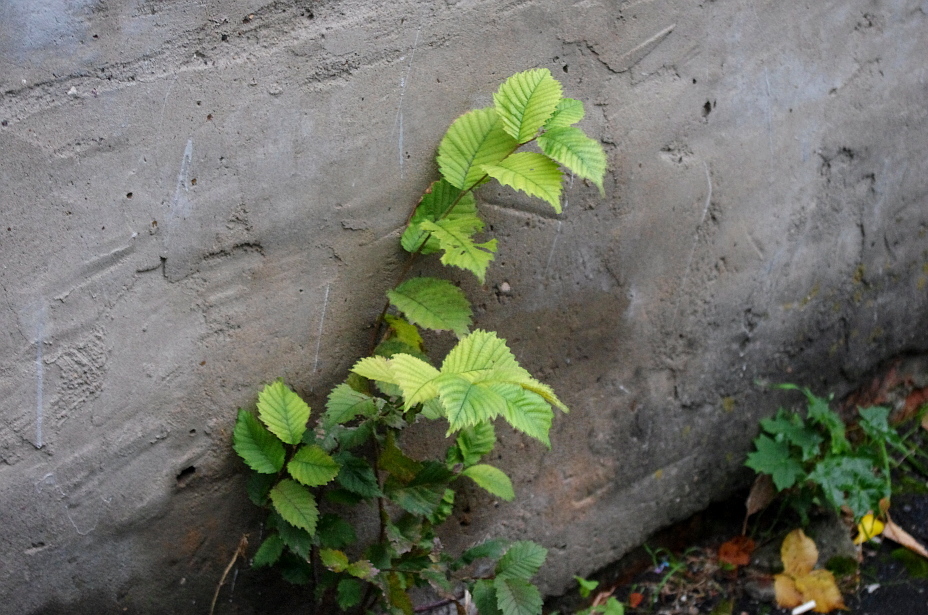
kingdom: Plantae
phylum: Tracheophyta
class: Magnoliopsida
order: Rosales
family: Ulmaceae
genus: Ulmus
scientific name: Ulmus laevis
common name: European white-elm
